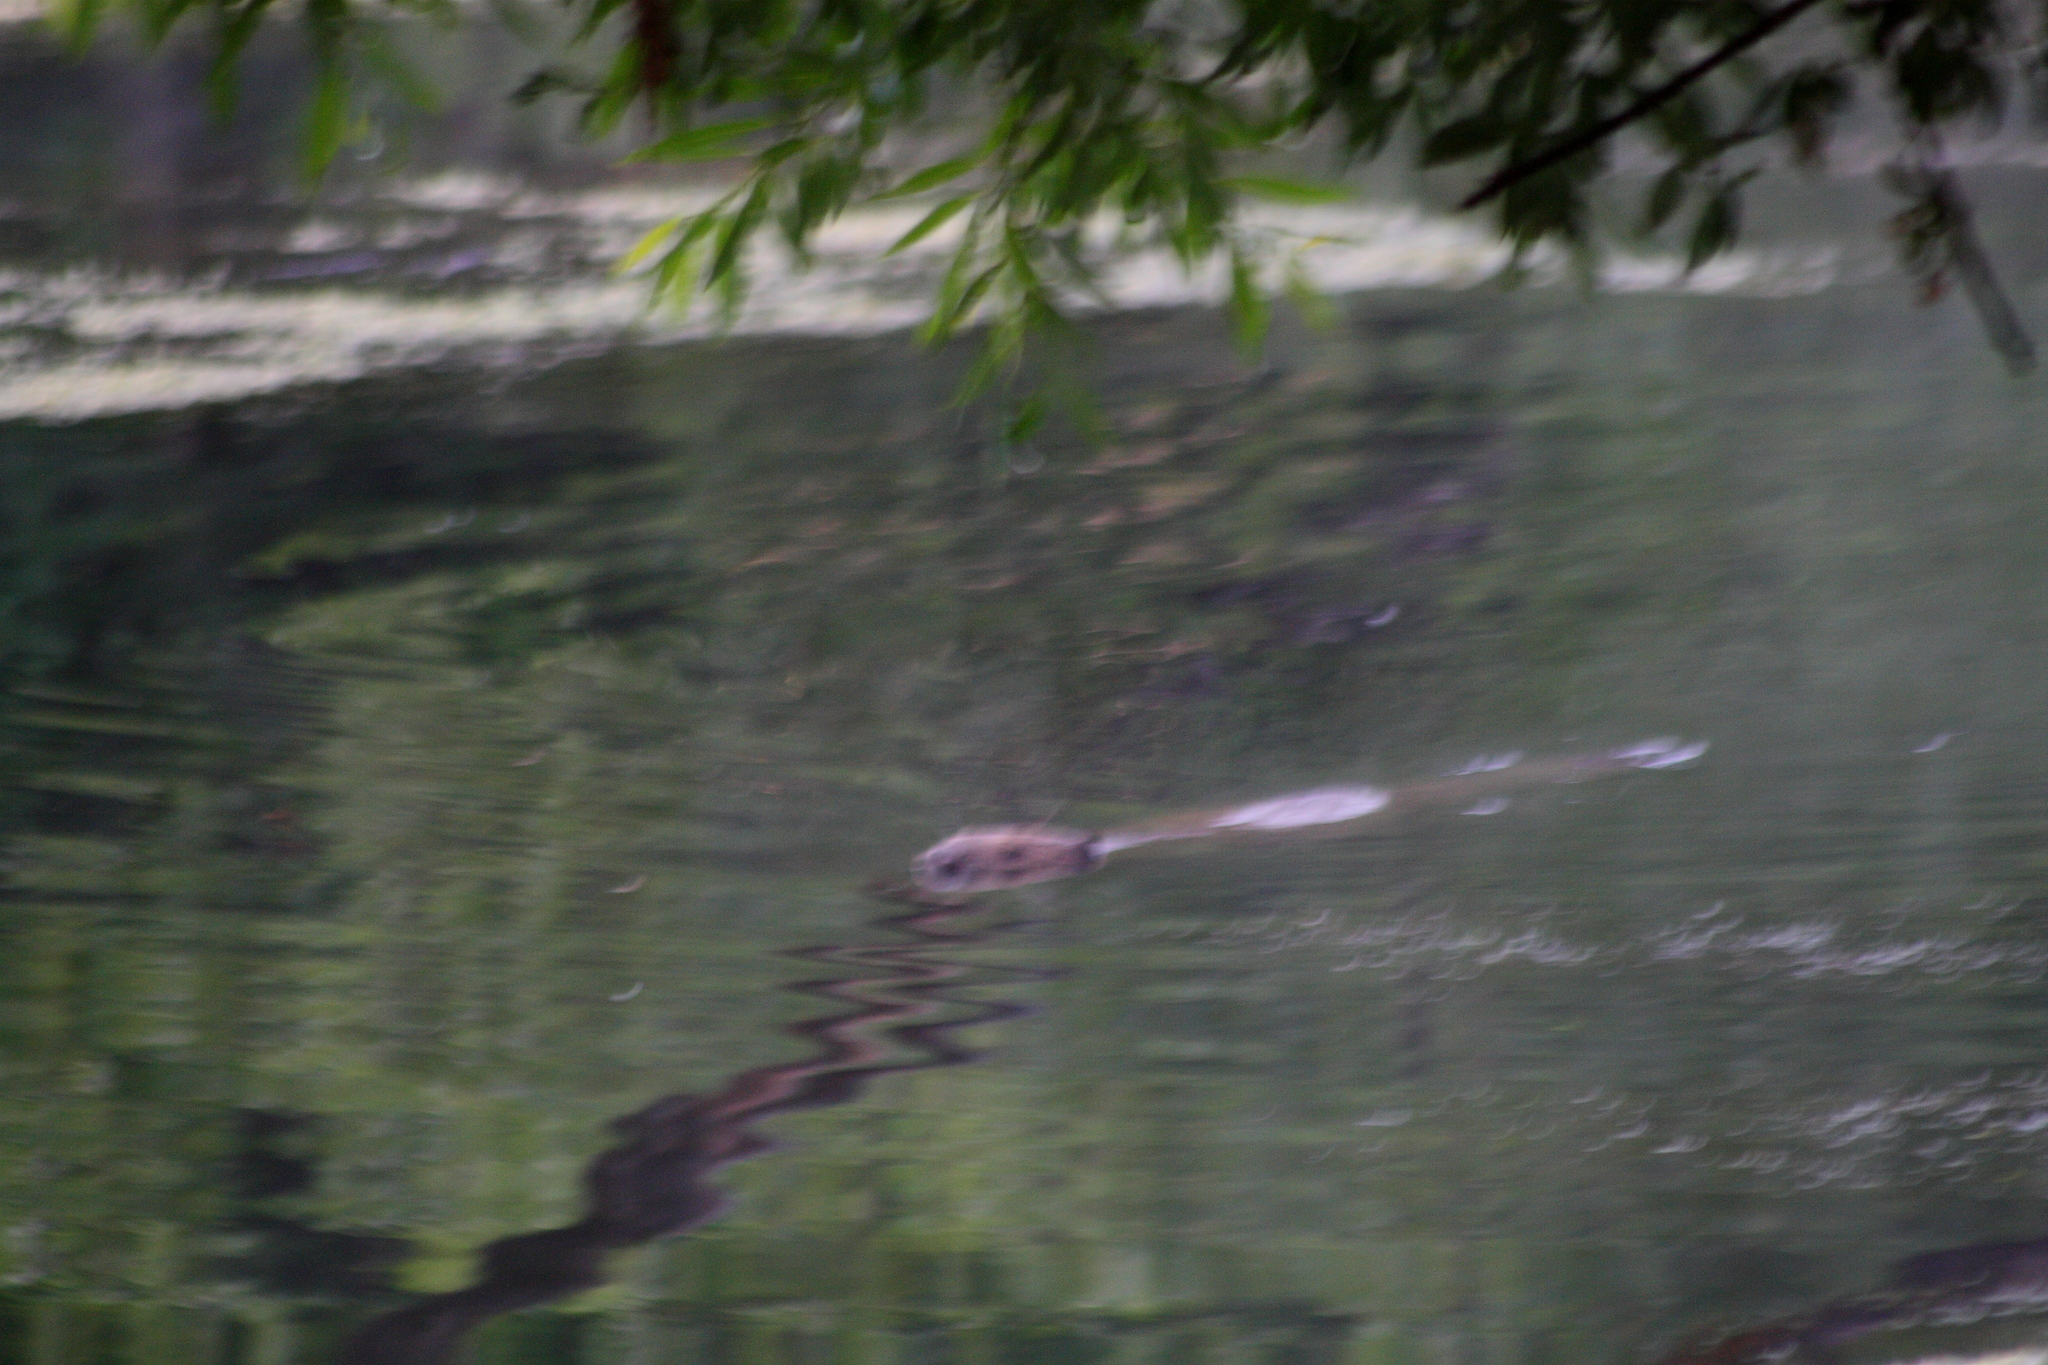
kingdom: Animalia
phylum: Chordata
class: Mammalia
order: Rodentia
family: Castoridae
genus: Castor
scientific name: Castor fiber
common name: Eurasian beaver
